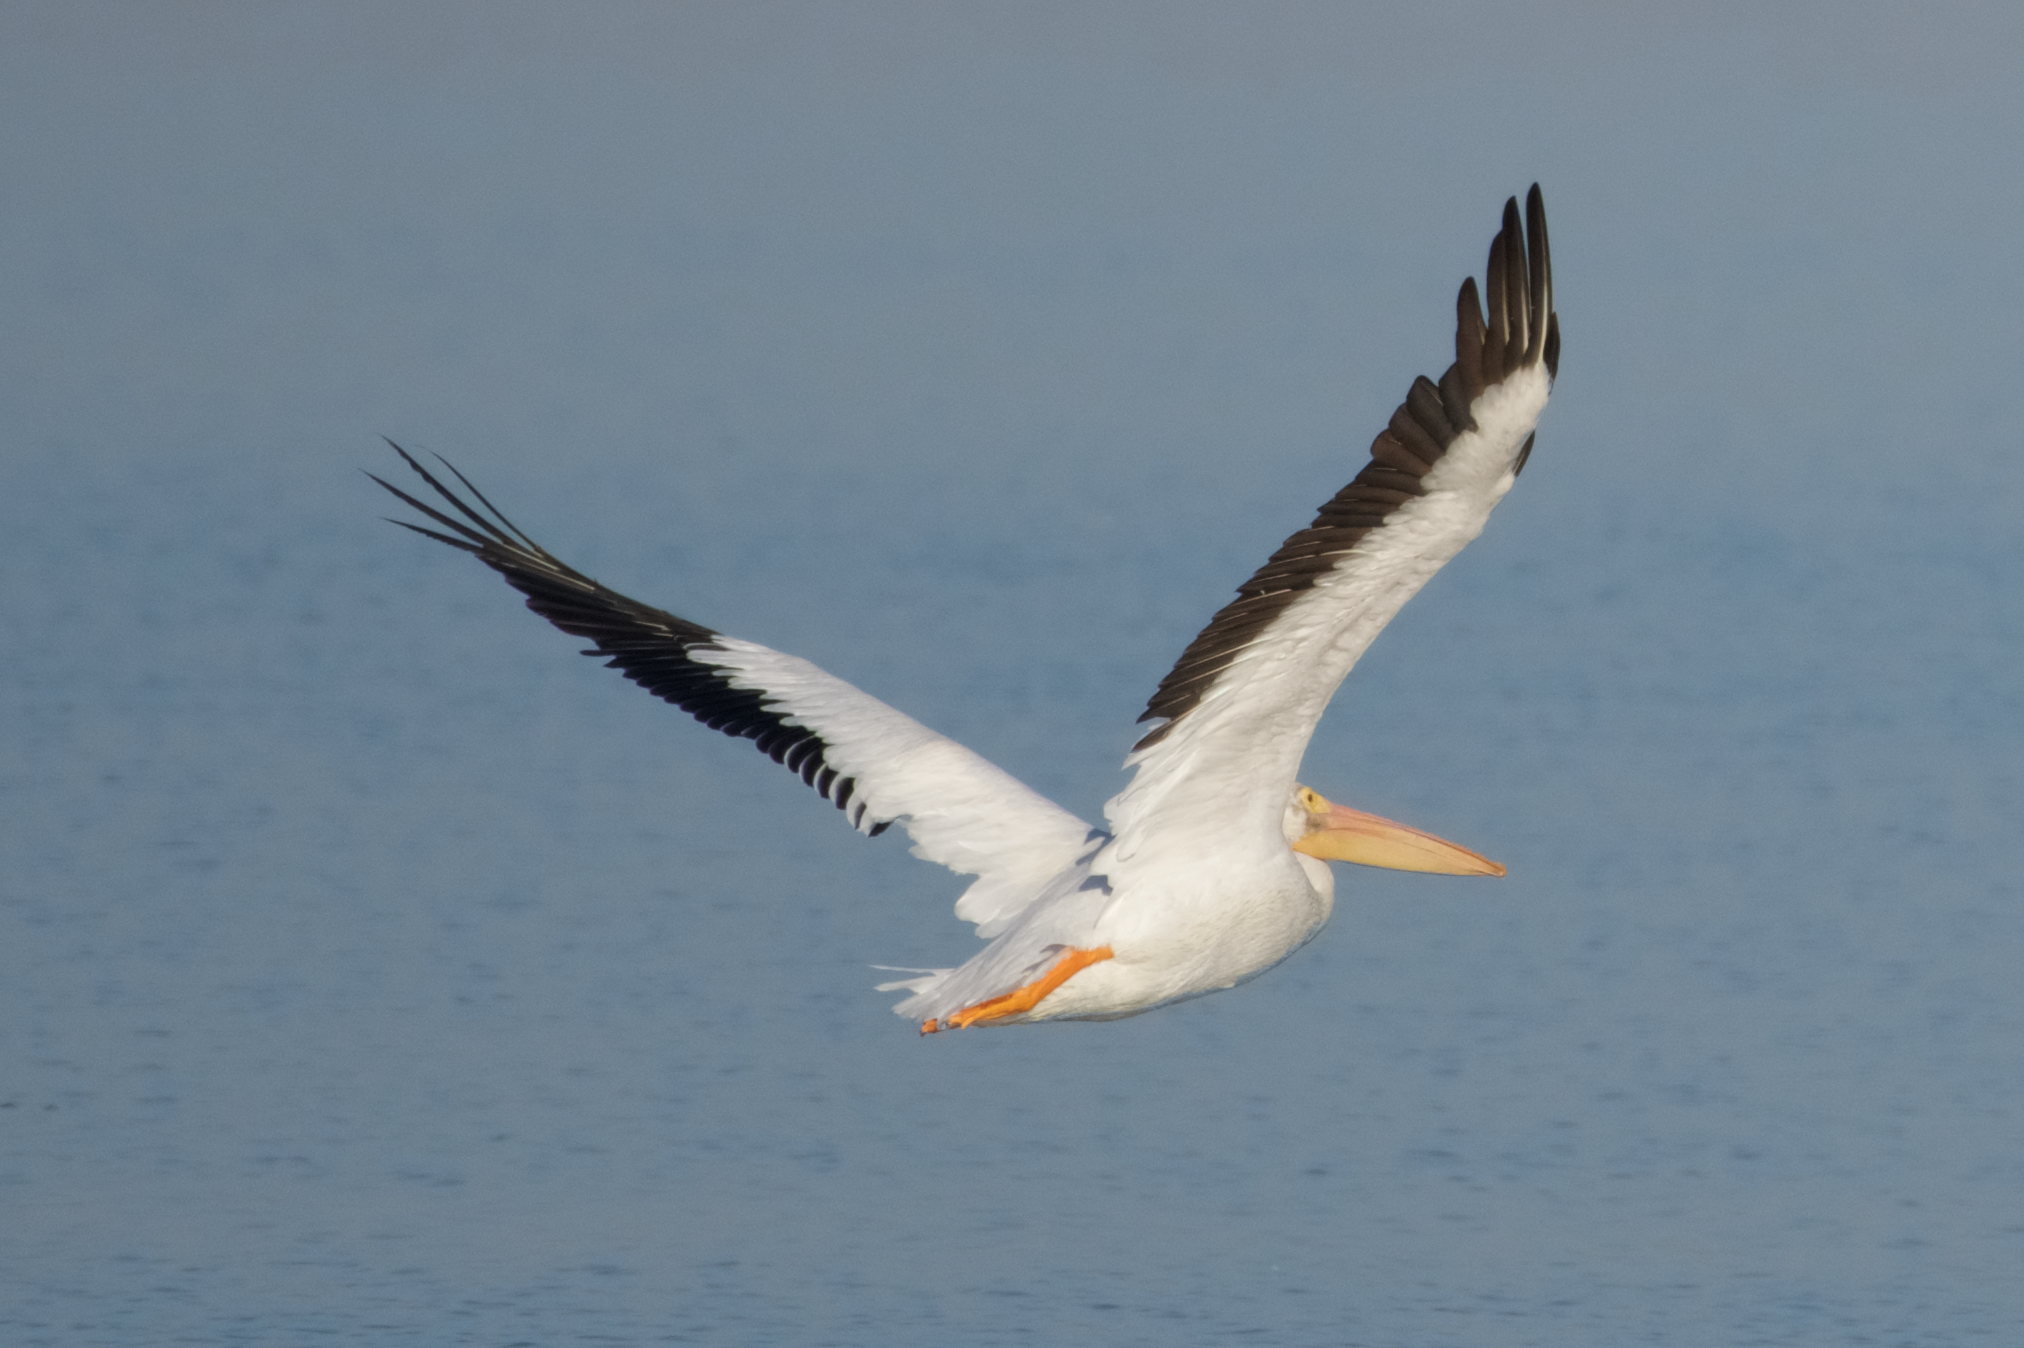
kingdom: Animalia
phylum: Chordata
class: Aves
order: Pelecaniformes
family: Pelecanidae
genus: Pelecanus
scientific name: Pelecanus erythrorhynchos
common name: American white pelican
